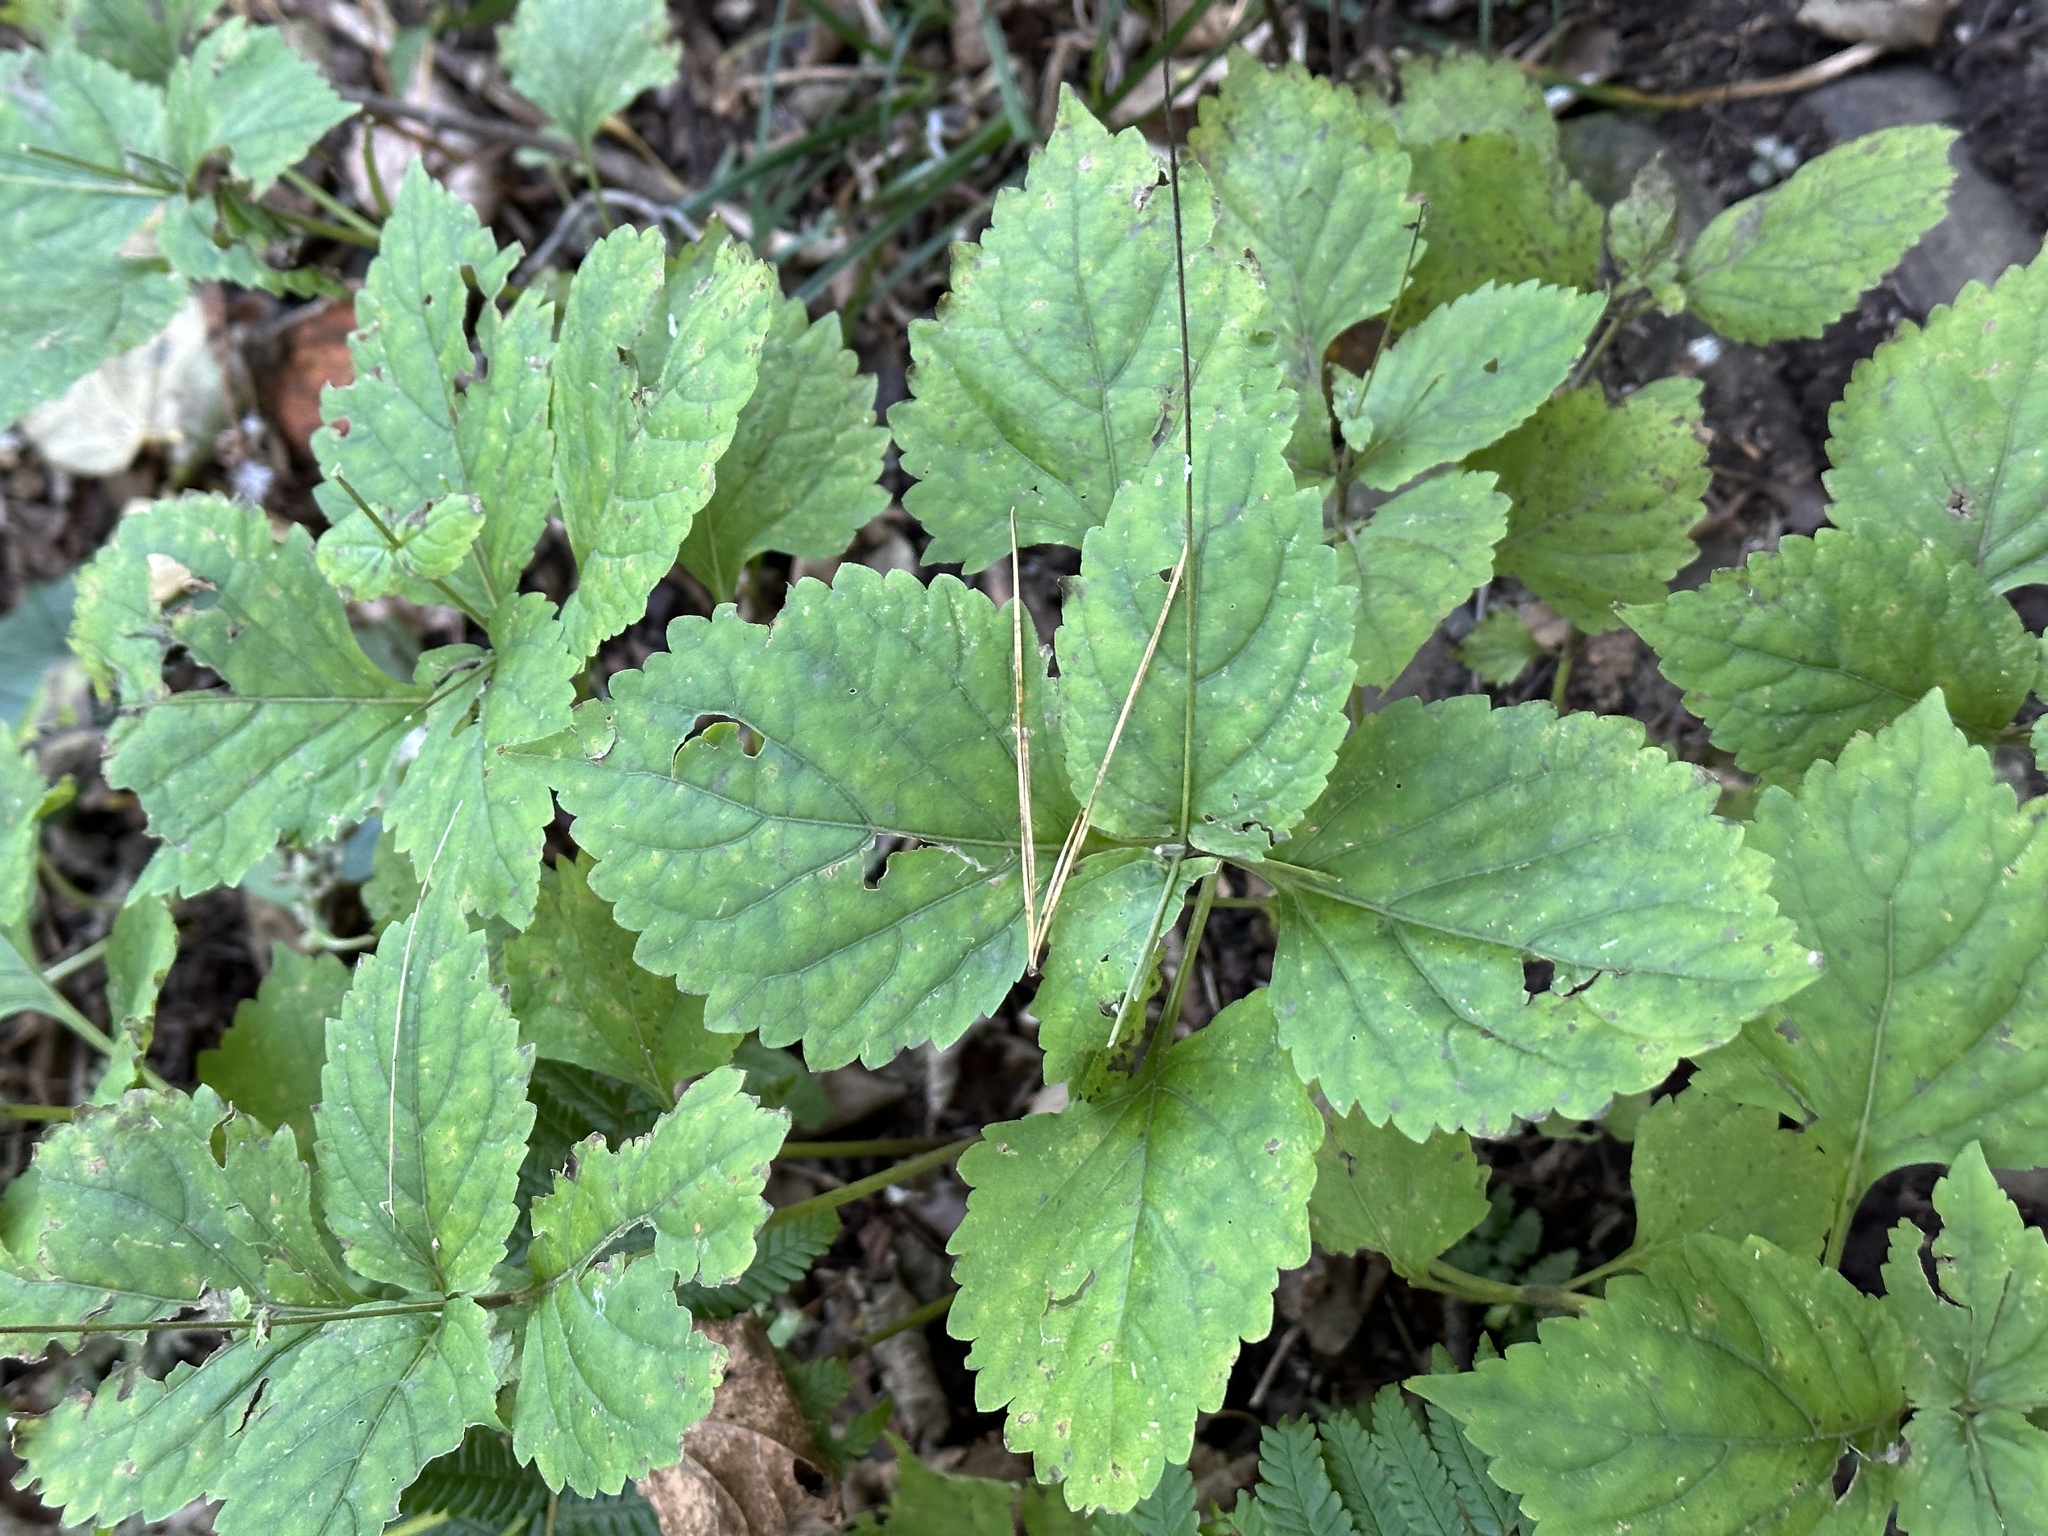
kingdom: Plantae
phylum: Tracheophyta
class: Magnoliopsida
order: Lamiales
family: Phrymaceae
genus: Phryma
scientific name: Phryma nana
